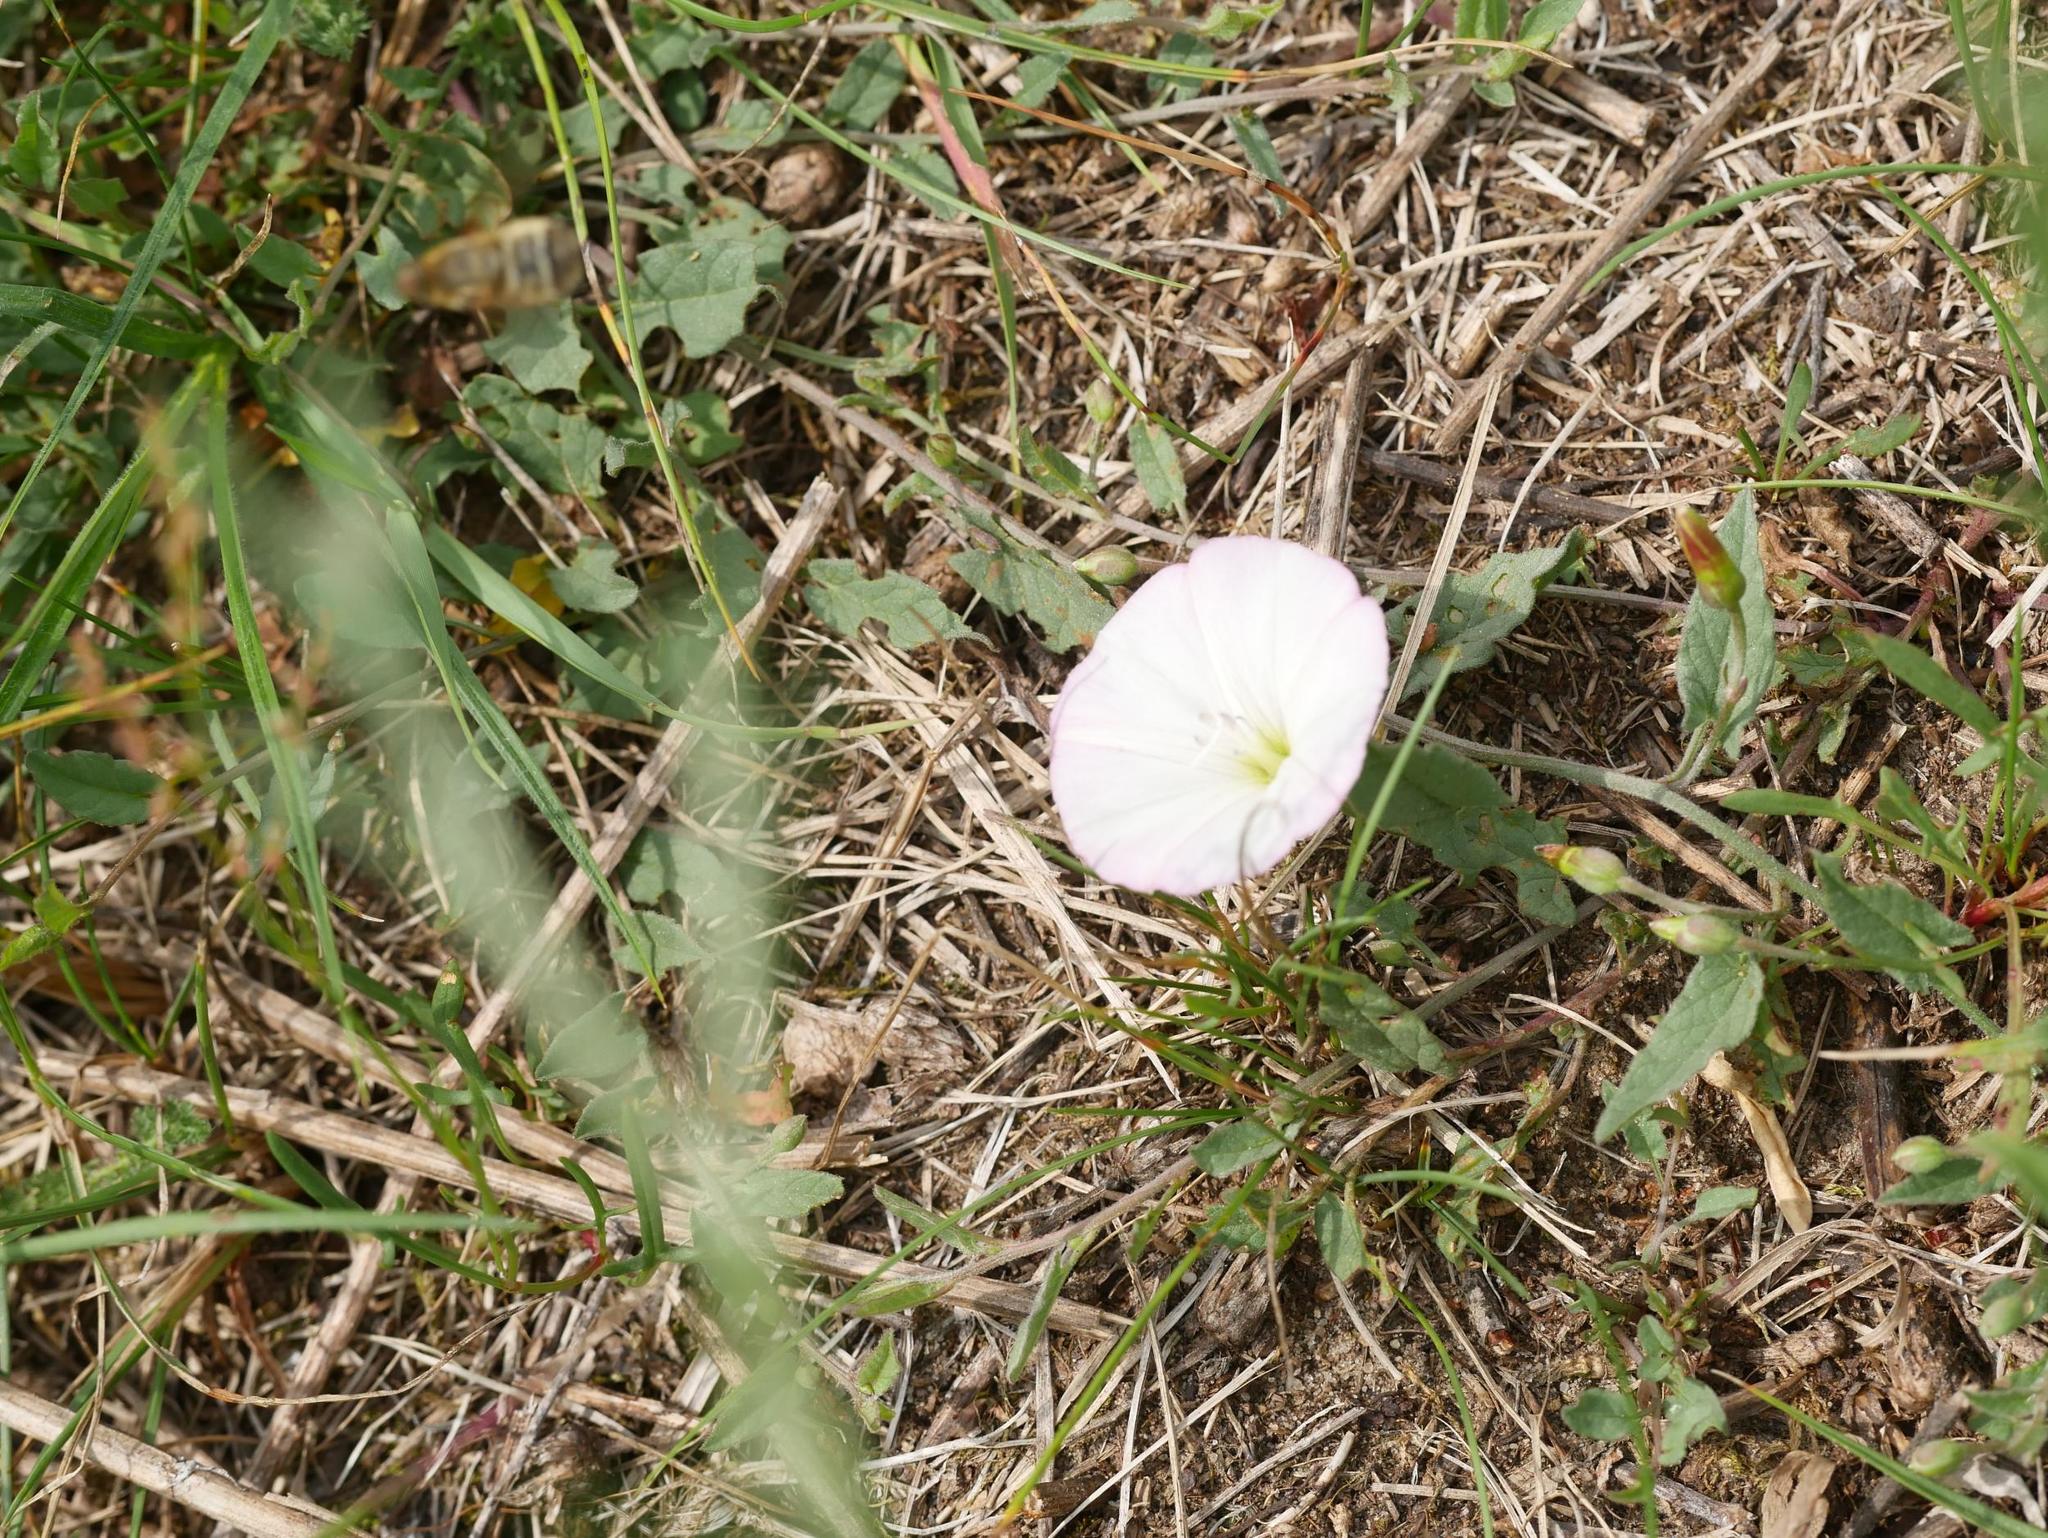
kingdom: Plantae
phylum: Tracheophyta
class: Magnoliopsida
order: Solanales
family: Convolvulaceae
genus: Convolvulus
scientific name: Convolvulus arvensis
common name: Field bindweed
